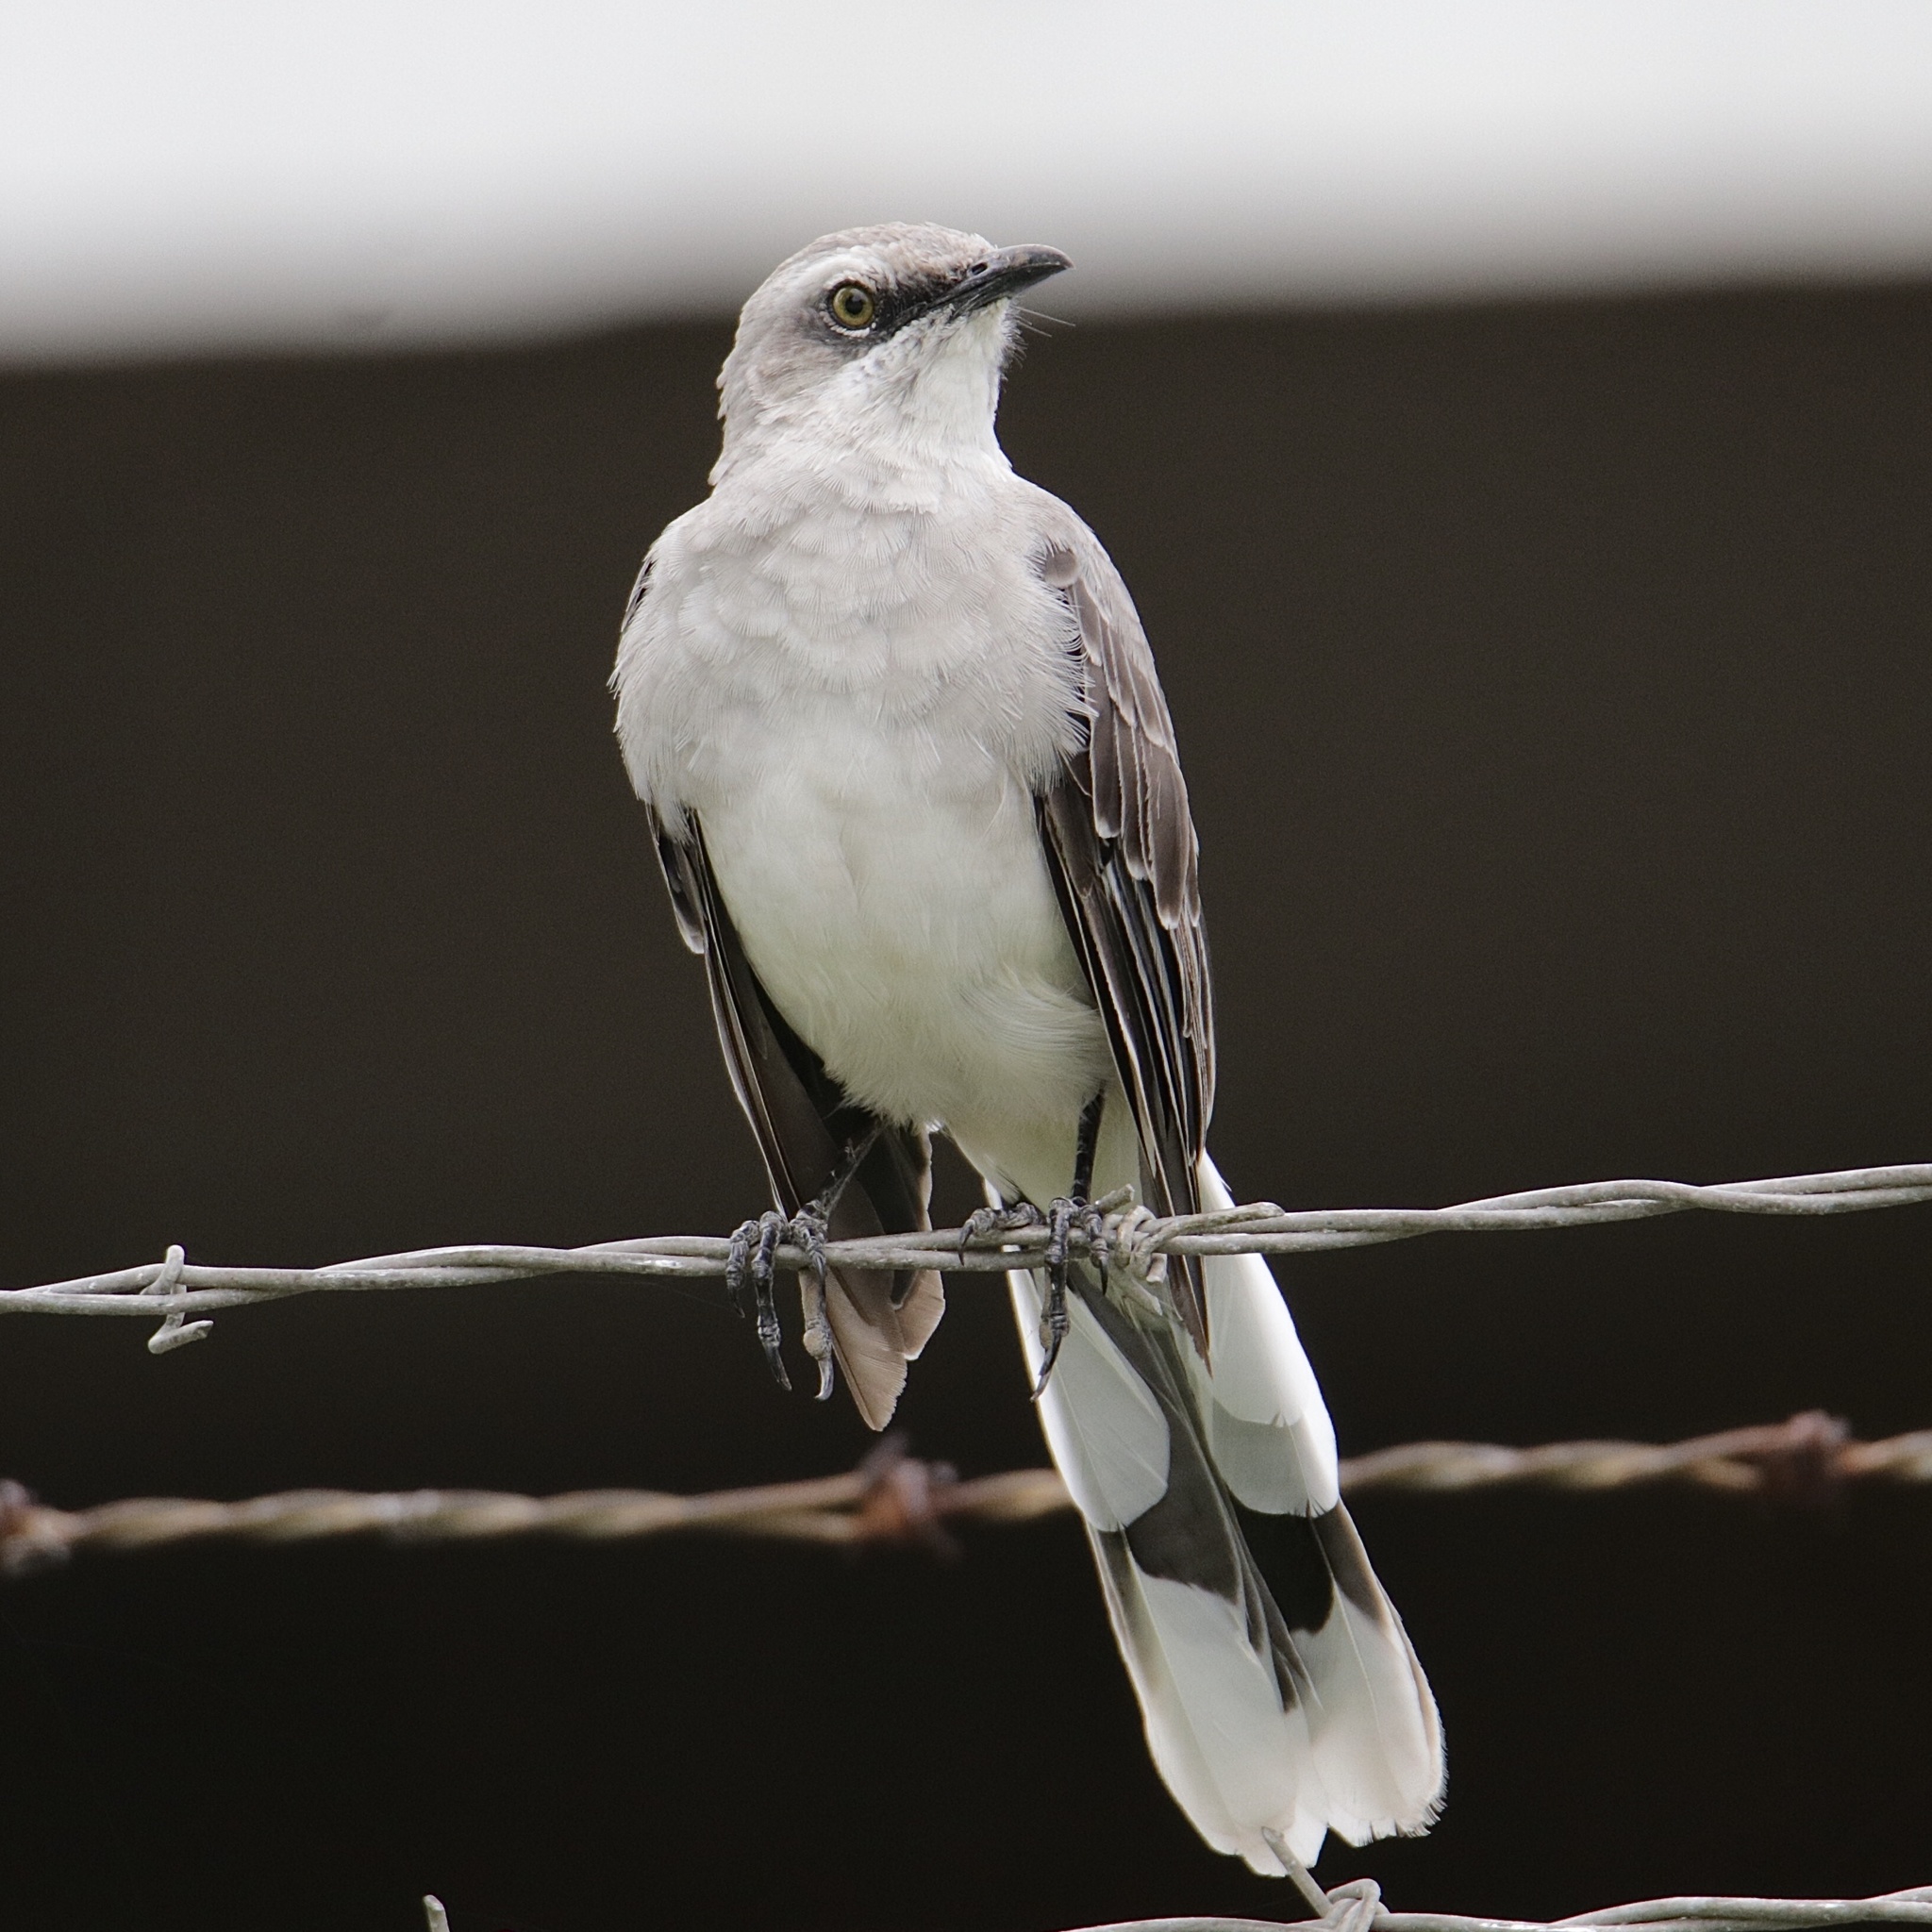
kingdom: Animalia
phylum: Chordata
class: Aves
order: Passeriformes
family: Mimidae
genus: Mimus
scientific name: Mimus gilvus
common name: Tropical mockingbird
